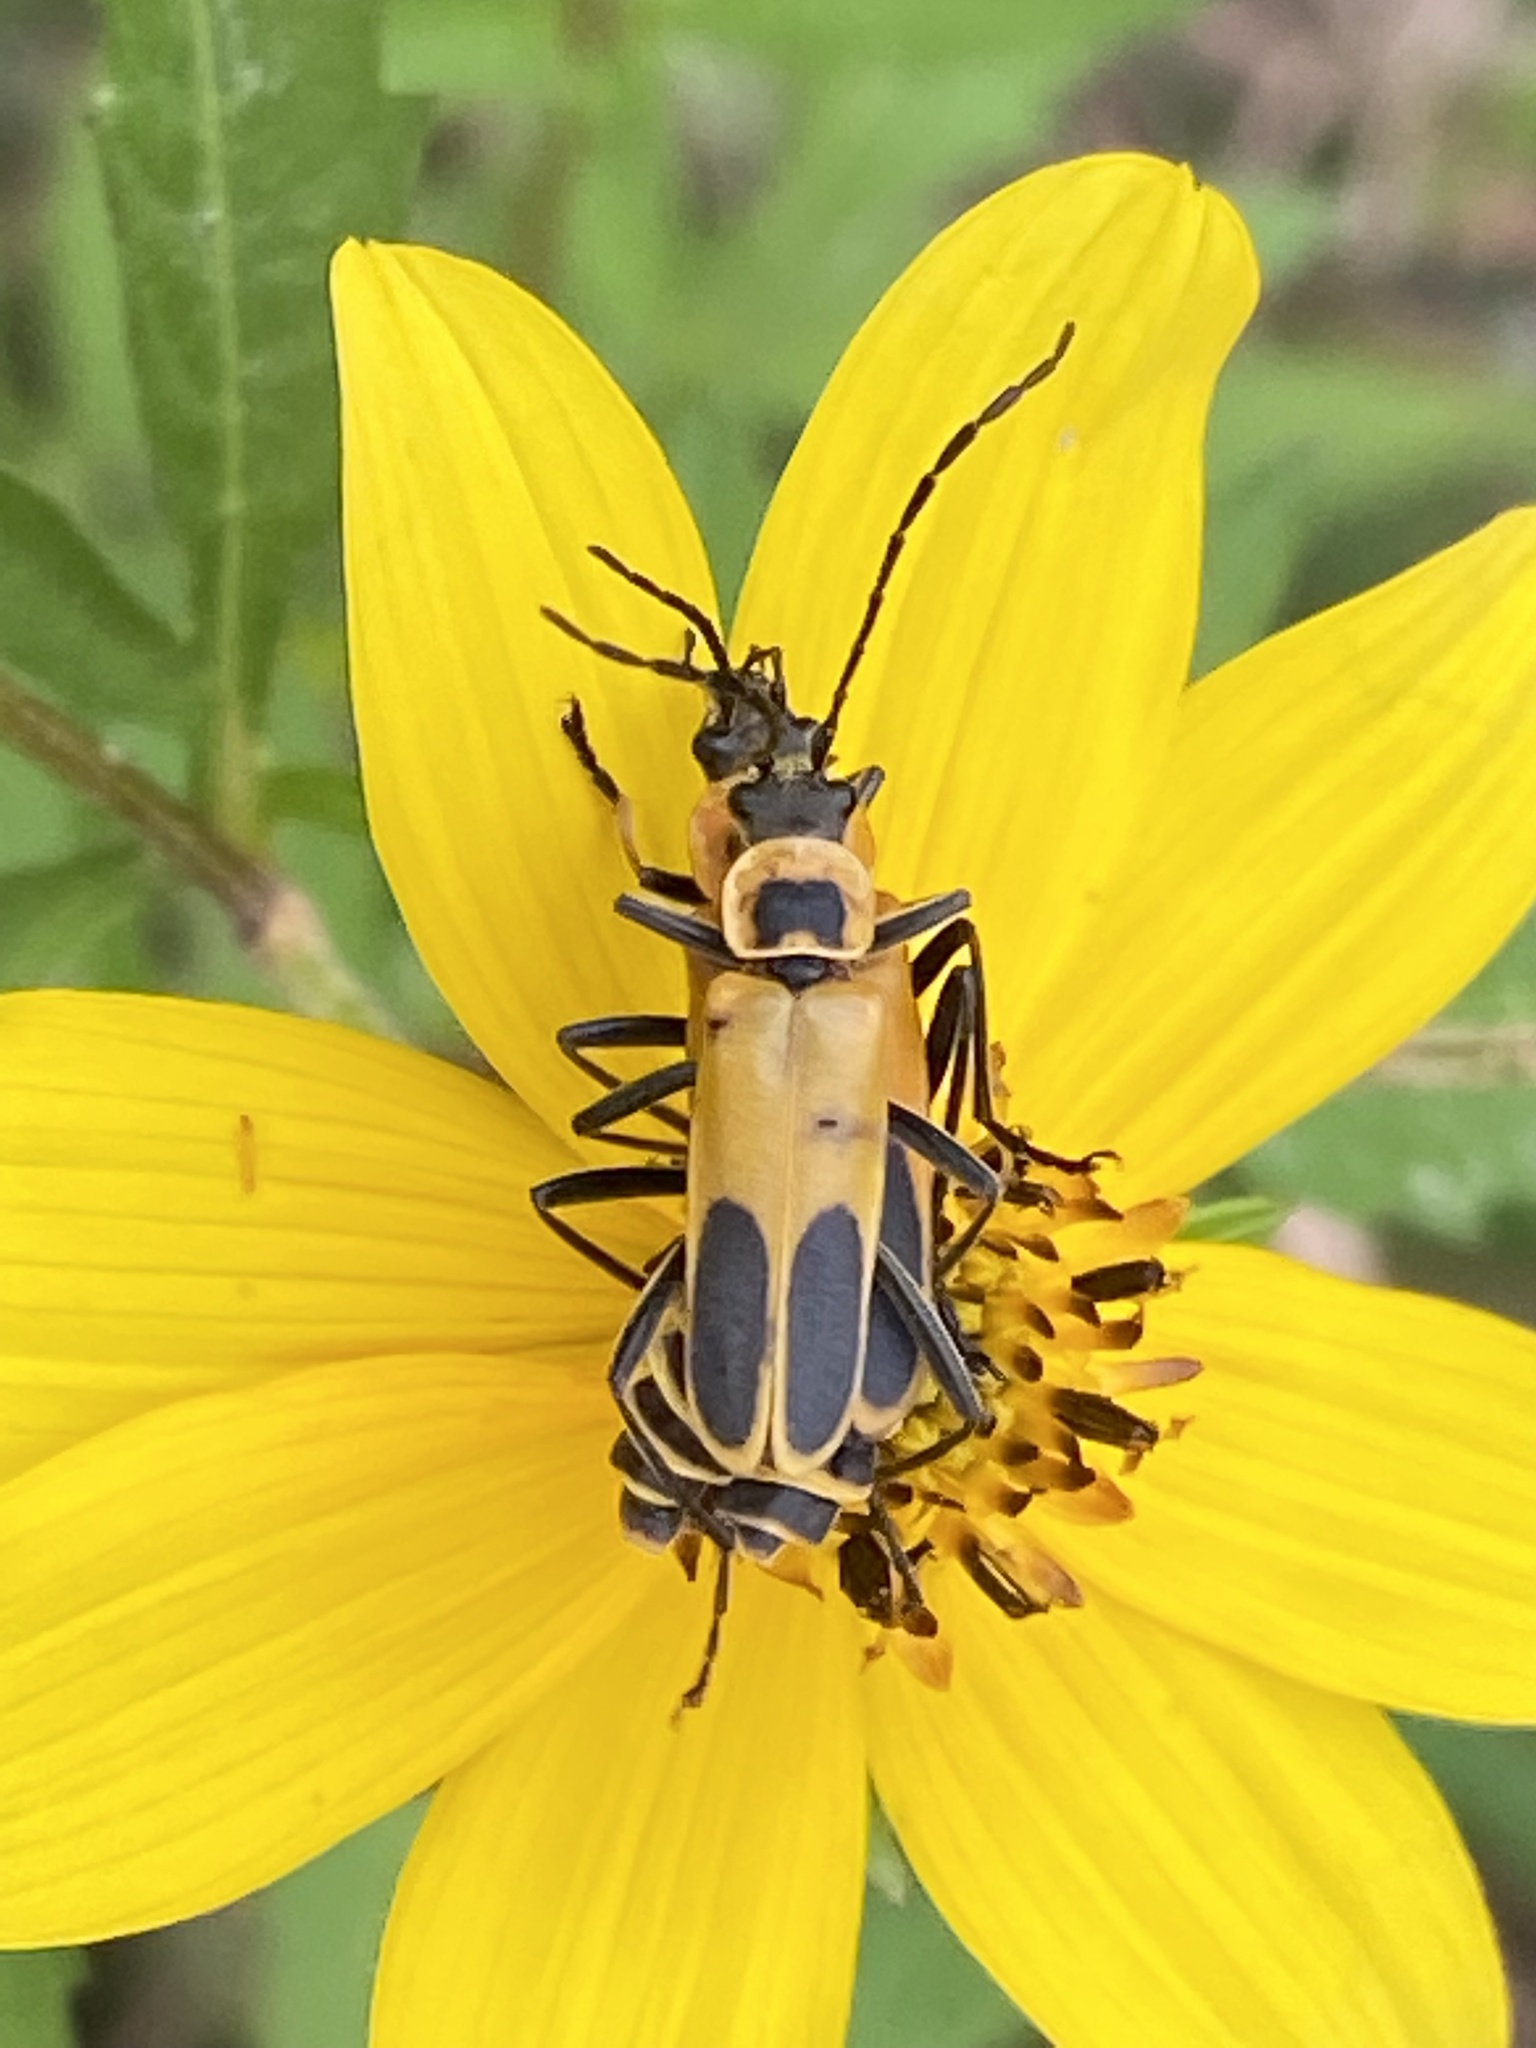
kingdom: Animalia
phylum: Arthropoda
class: Insecta
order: Coleoptera
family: Cantharidae
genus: Chauliognathus
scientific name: Chauliognathus pensylvanicus
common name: Goldenrod soldier beetle
